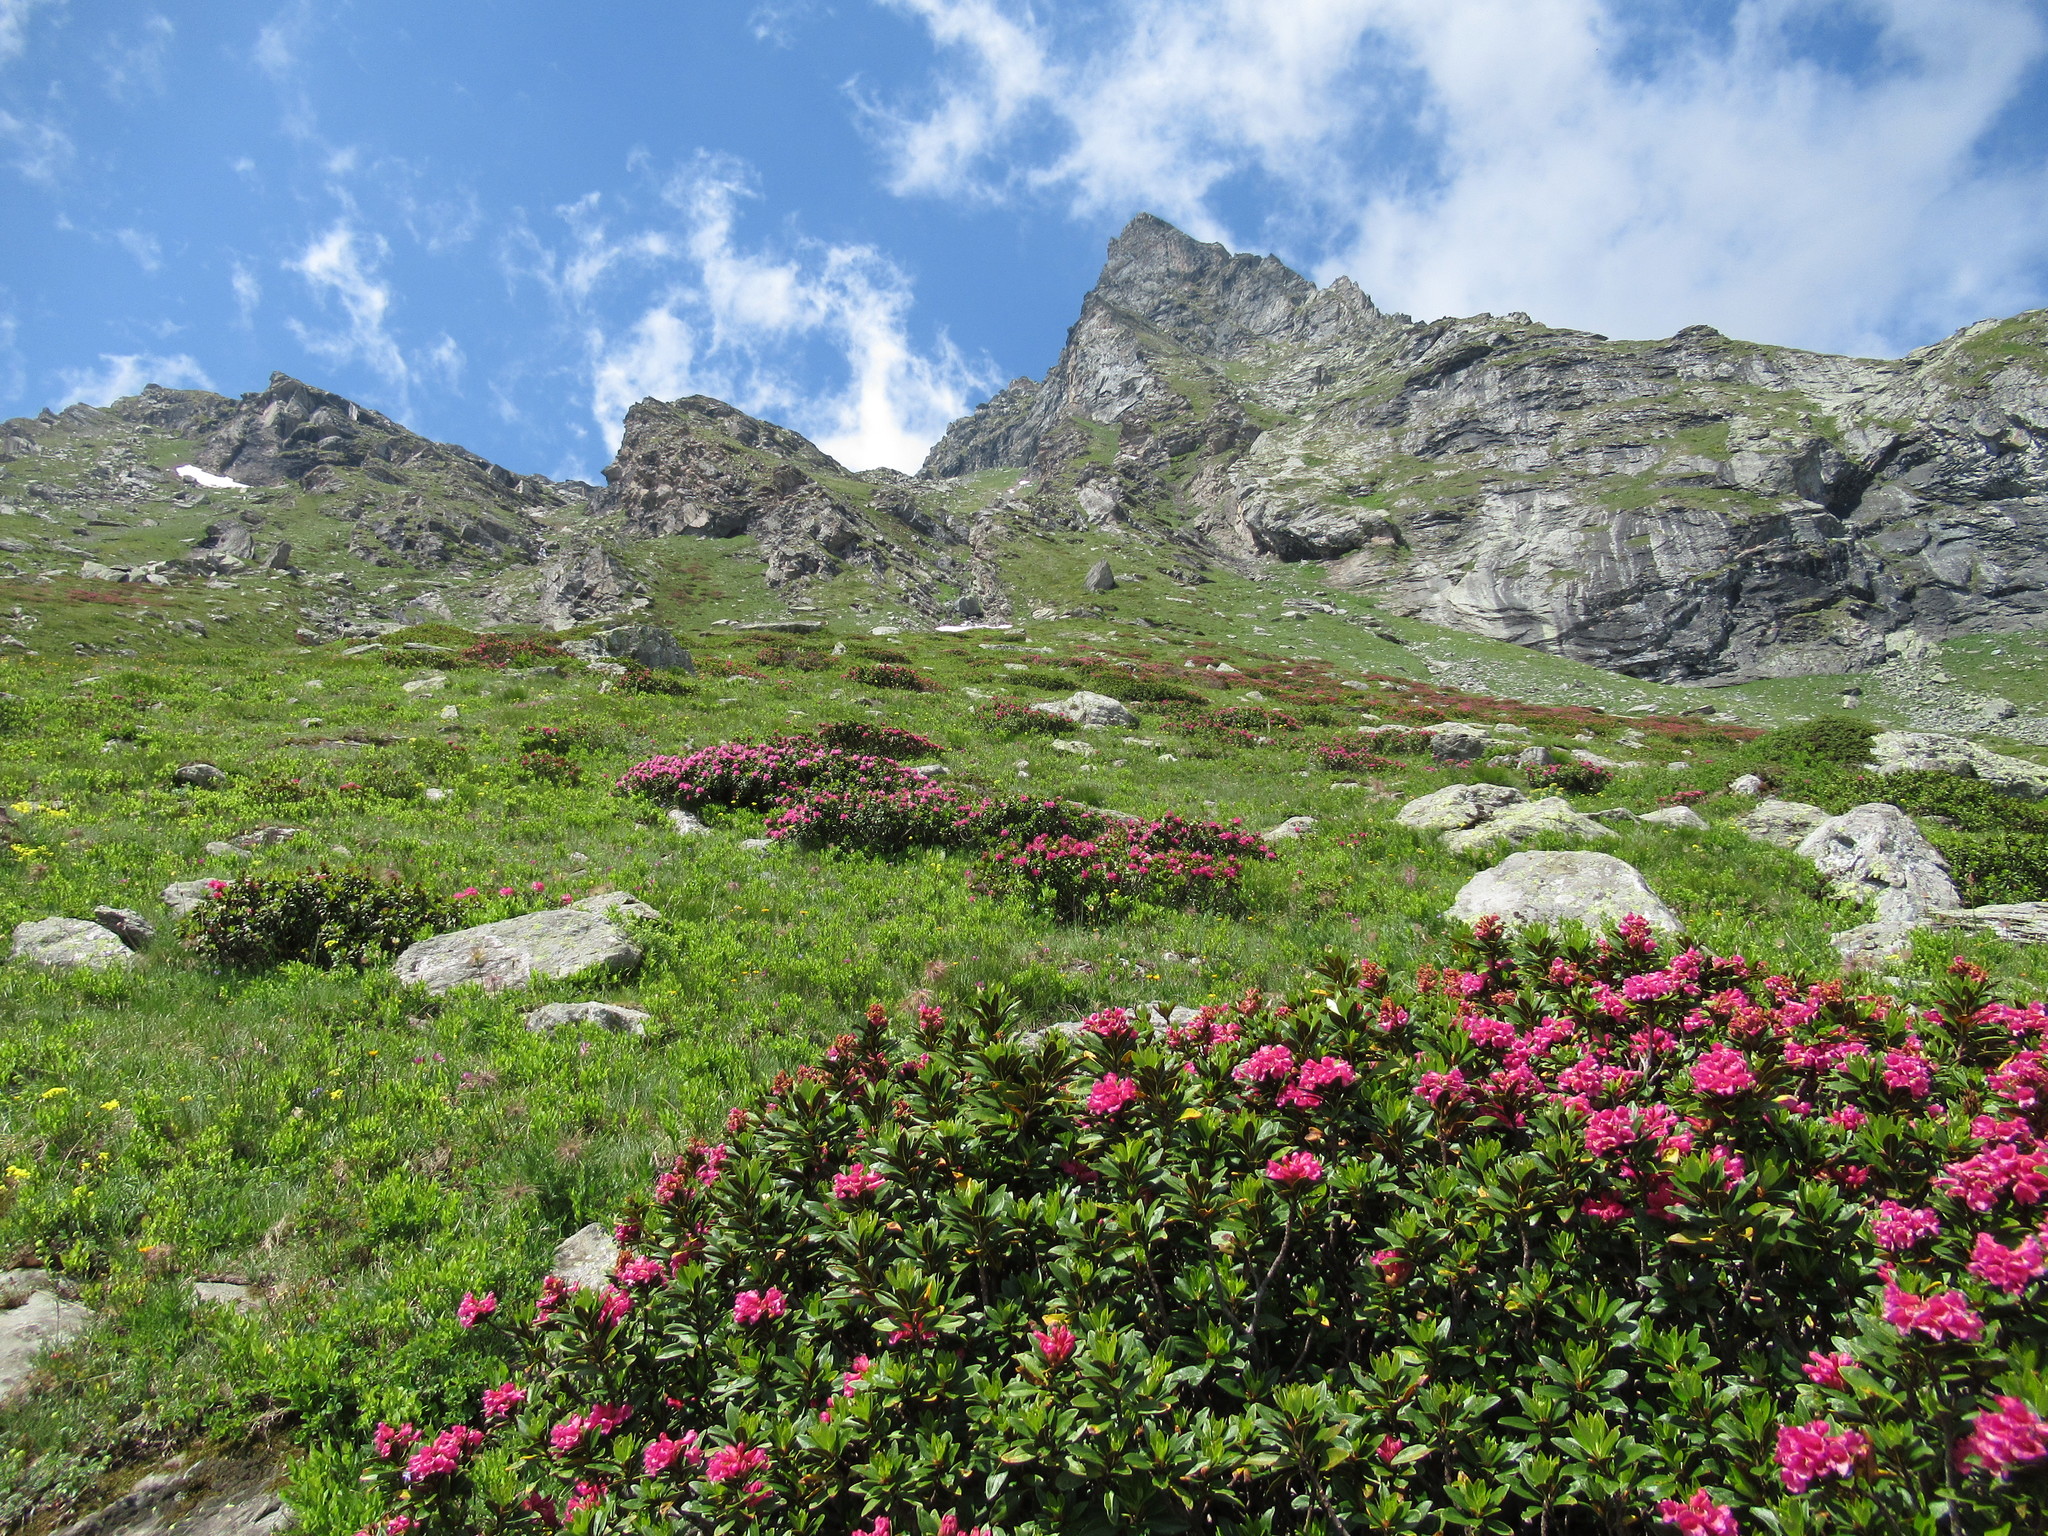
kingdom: Plantae
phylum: Tracheophyta
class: Magnoliopsida
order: Ericales
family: Ericaceae
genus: Rhododendron
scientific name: Rhododendron ferrugineum
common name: Alpenrose
